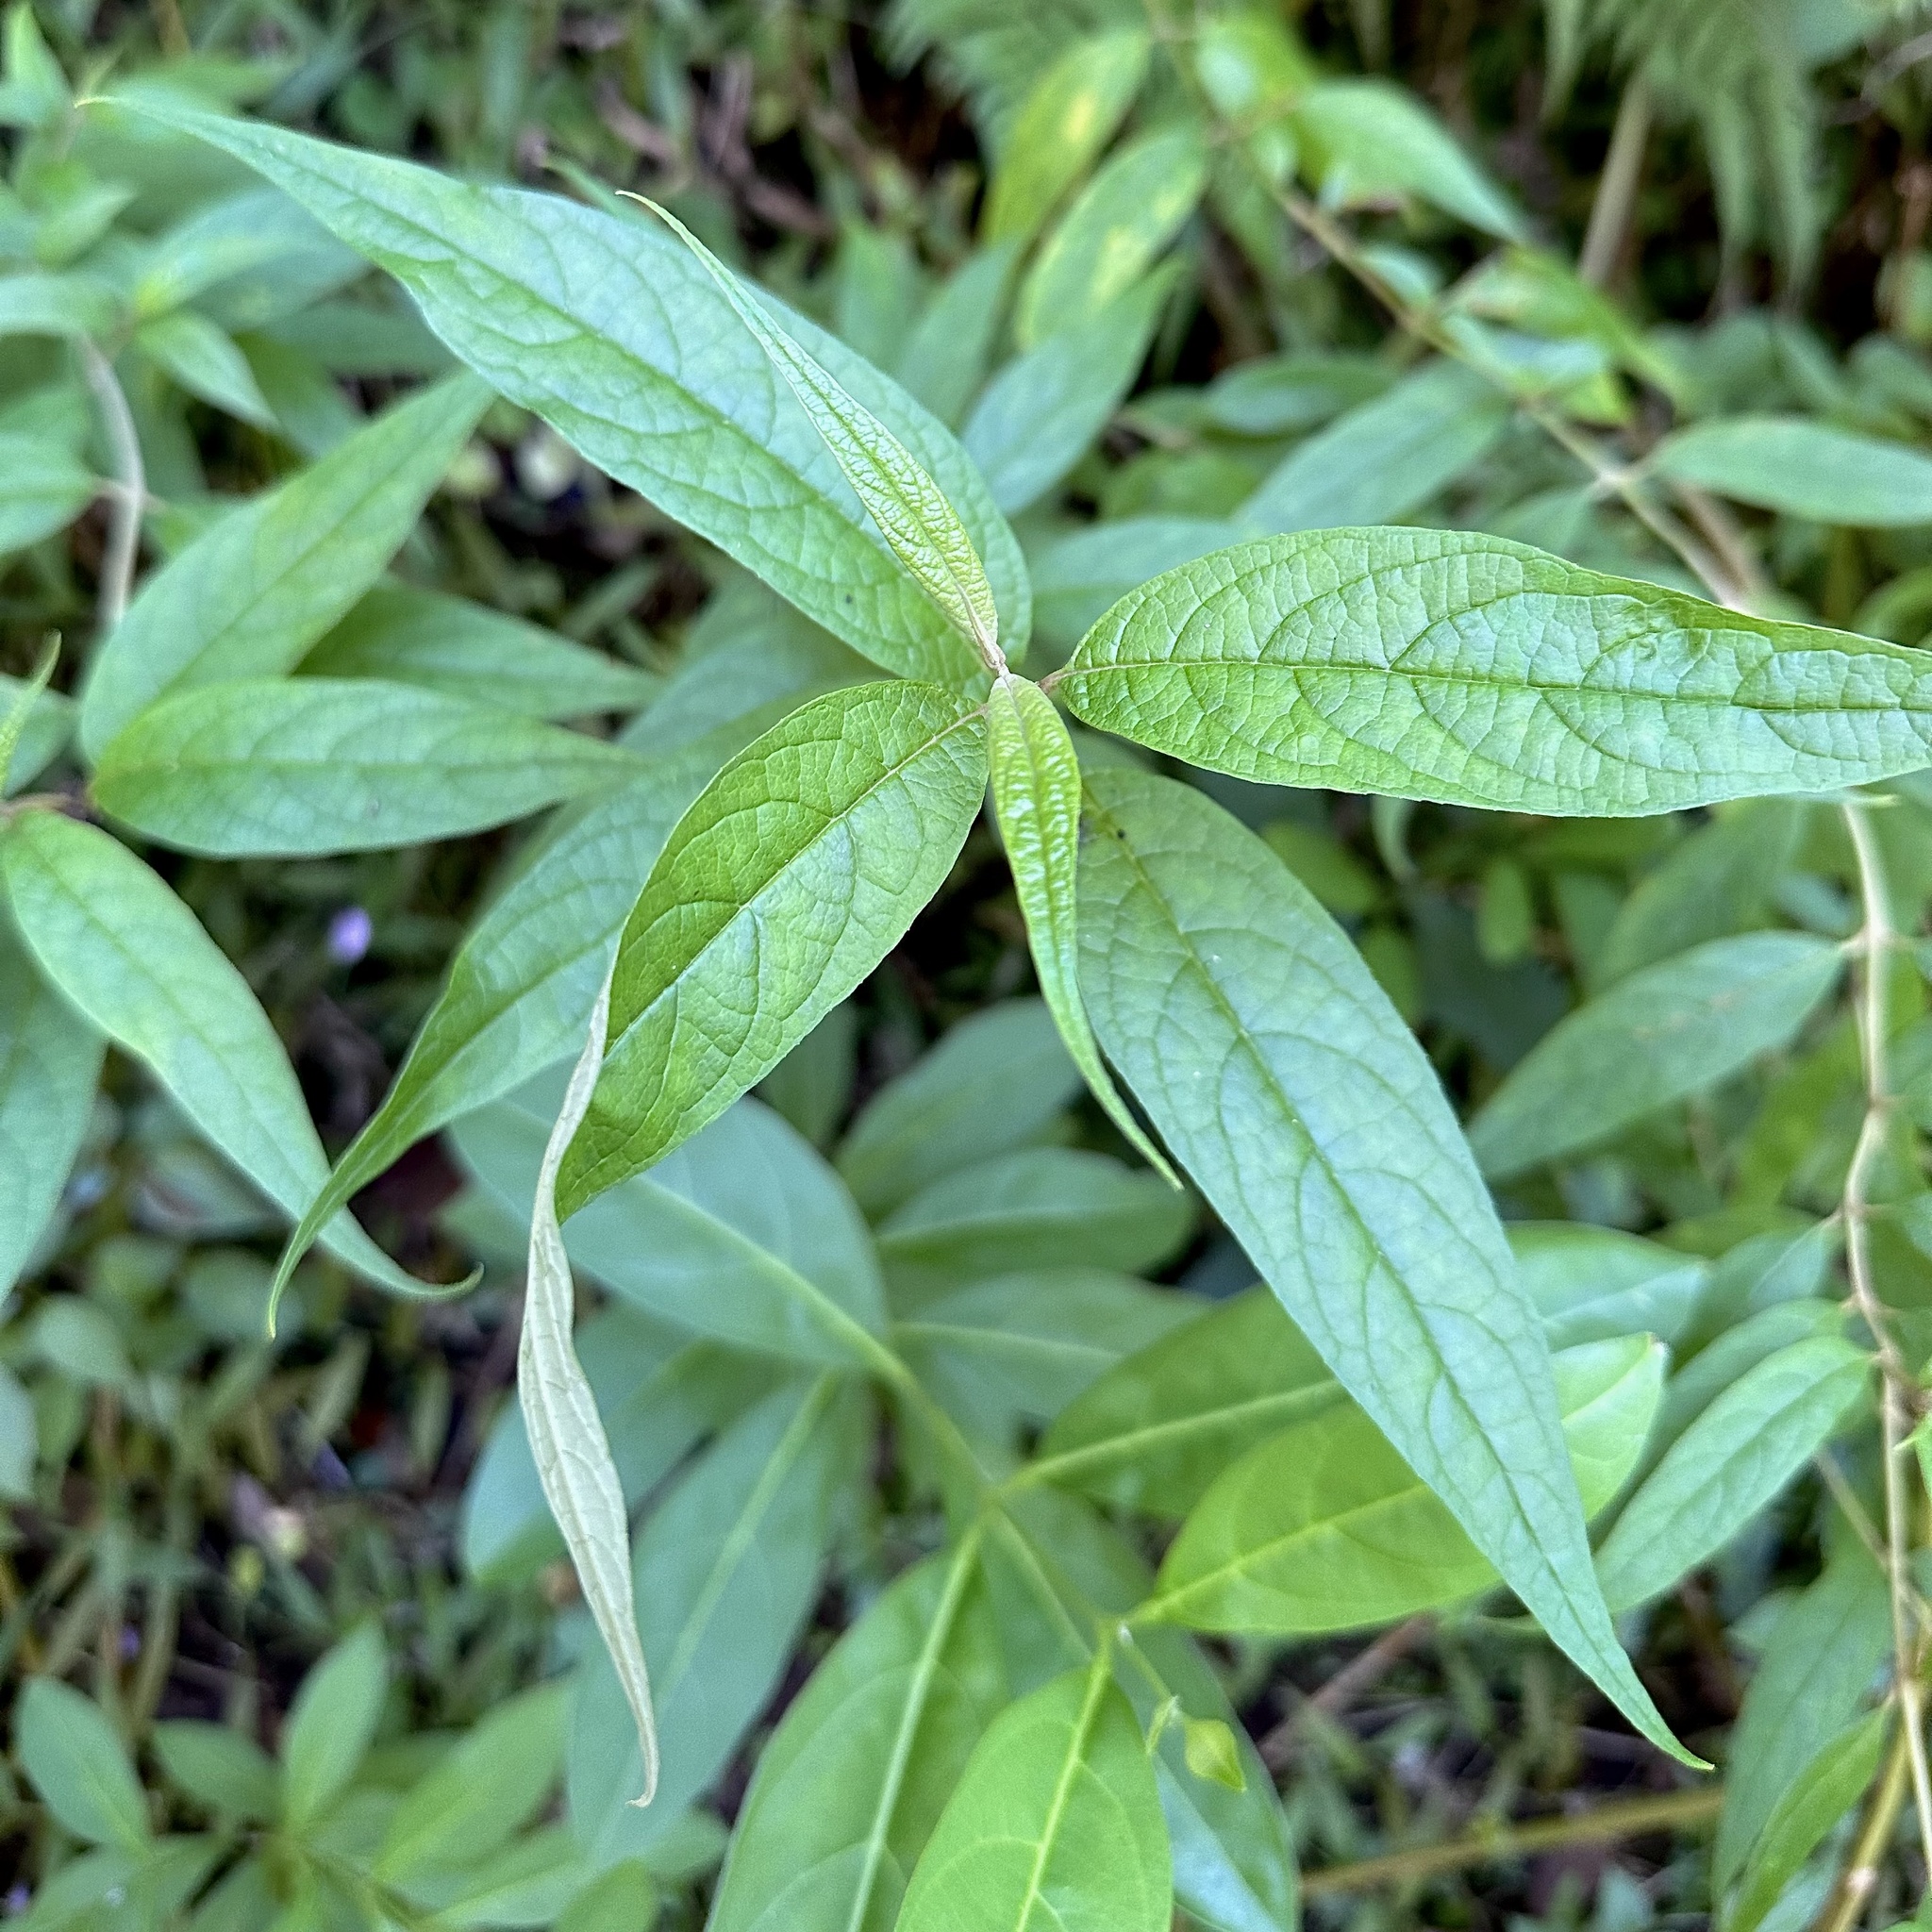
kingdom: Plantae
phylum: Tracheophyta
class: Magnoliopsida
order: Lamiales
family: Scrophulariaceae
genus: Buddleja
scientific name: Buddleja asiatica
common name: Dog tail
